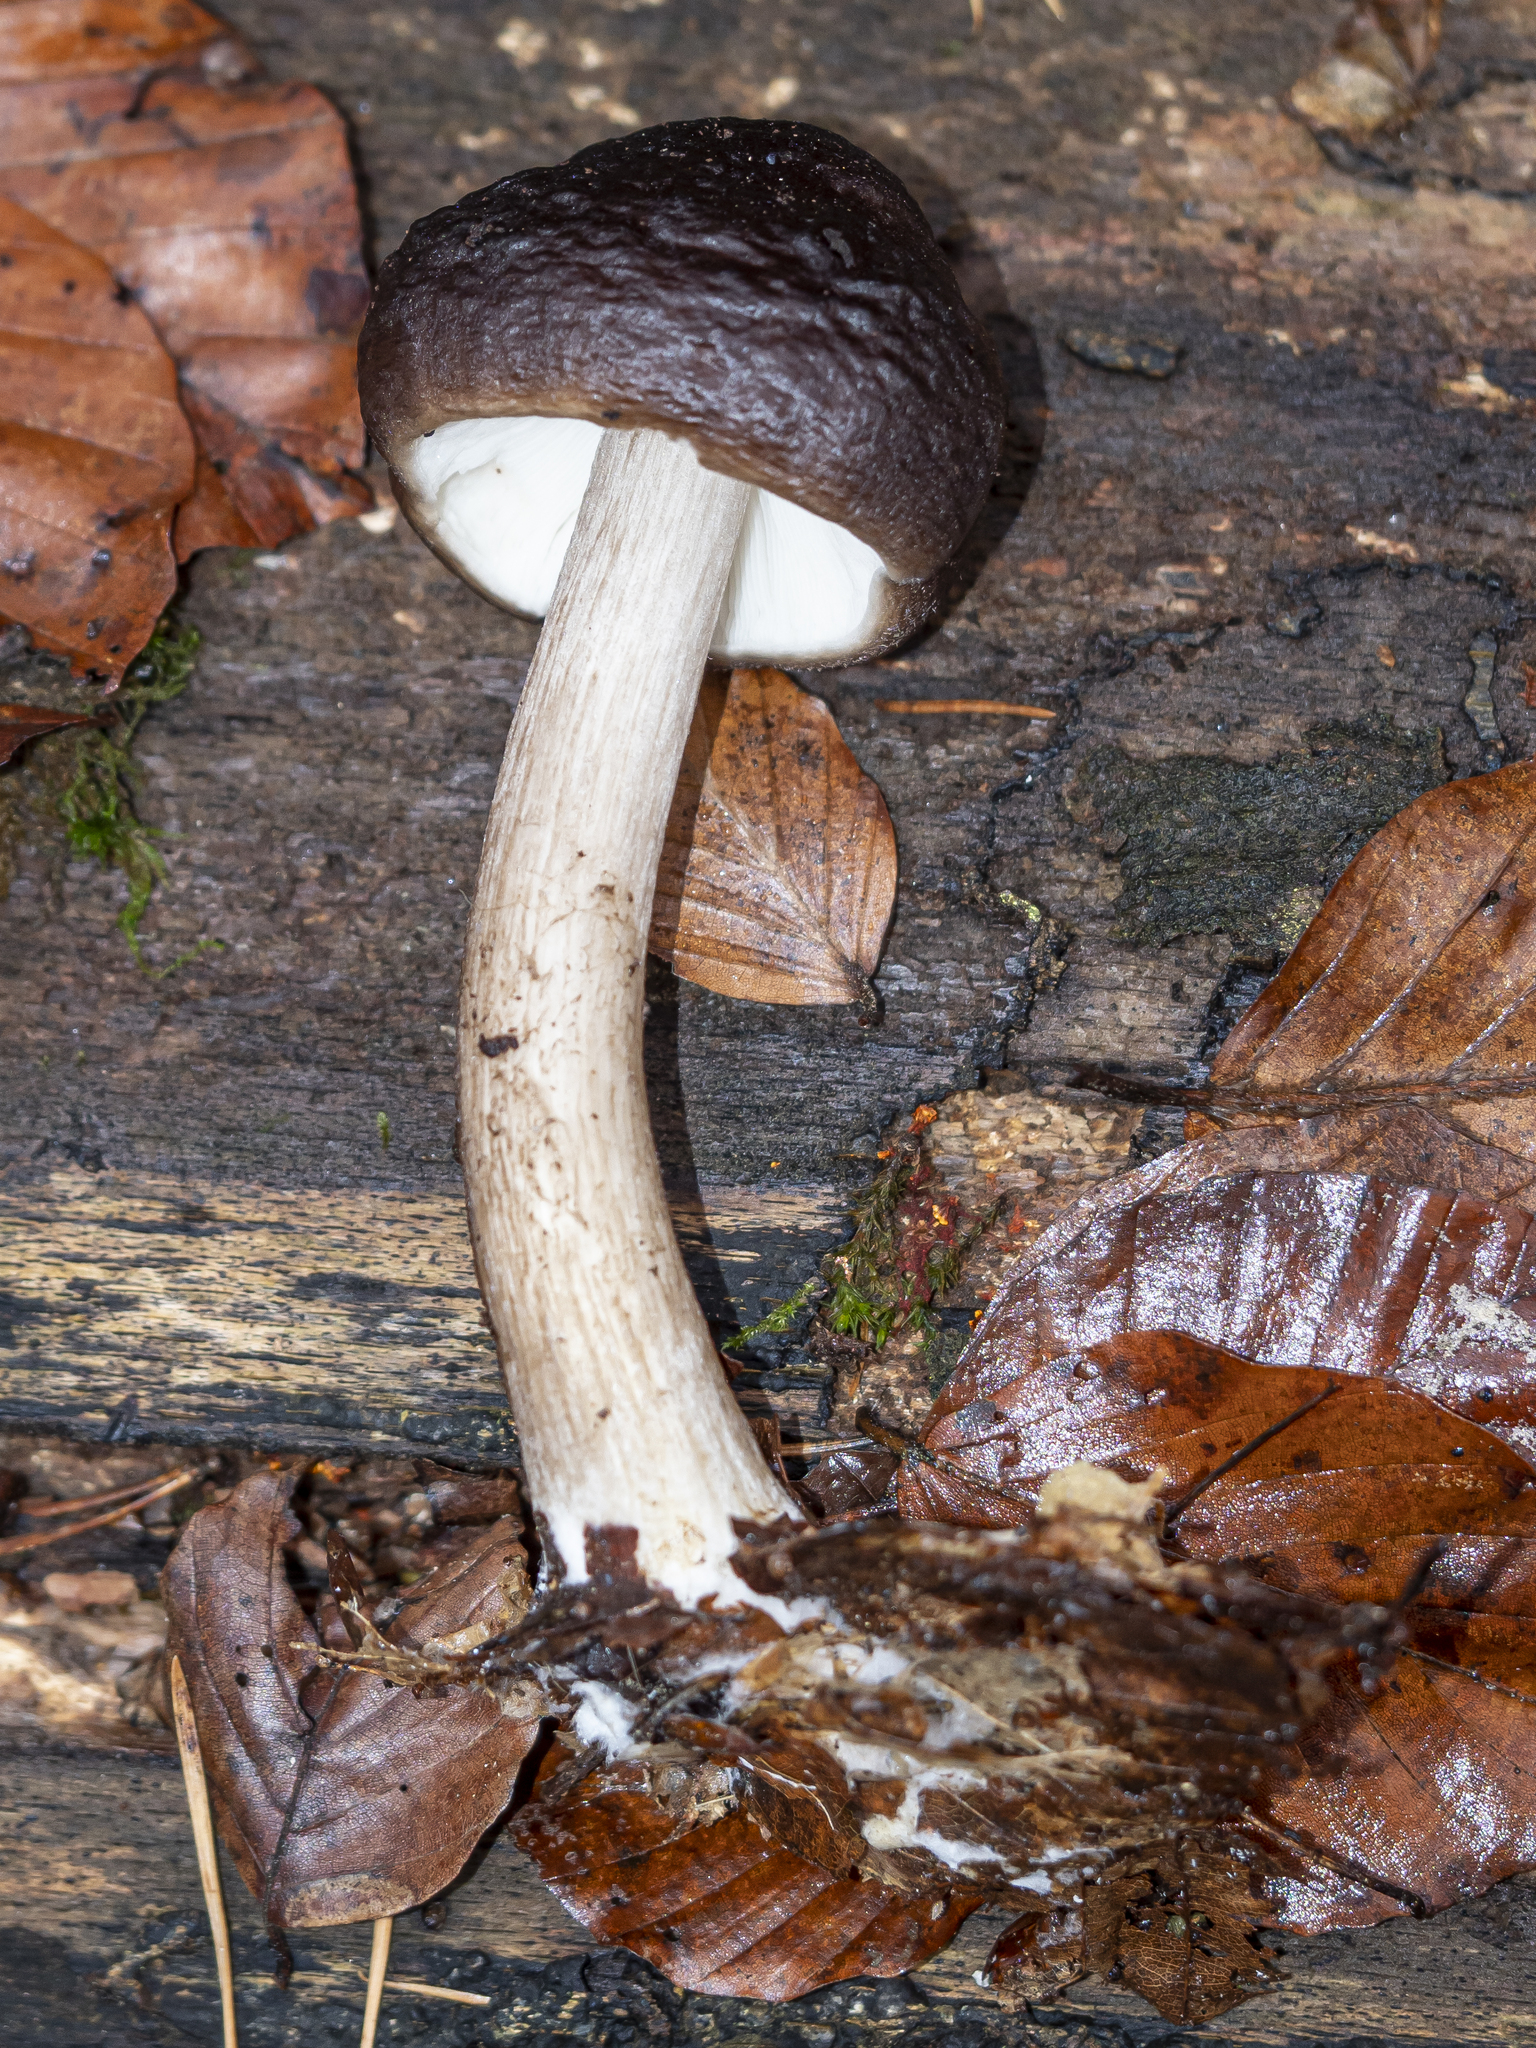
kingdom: Fungi
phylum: Basidiomycota
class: Agaricomycetes
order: Agaricales
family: Pluteaceae
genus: Pluteus
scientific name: Pluteus cervinus
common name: Deer shield
